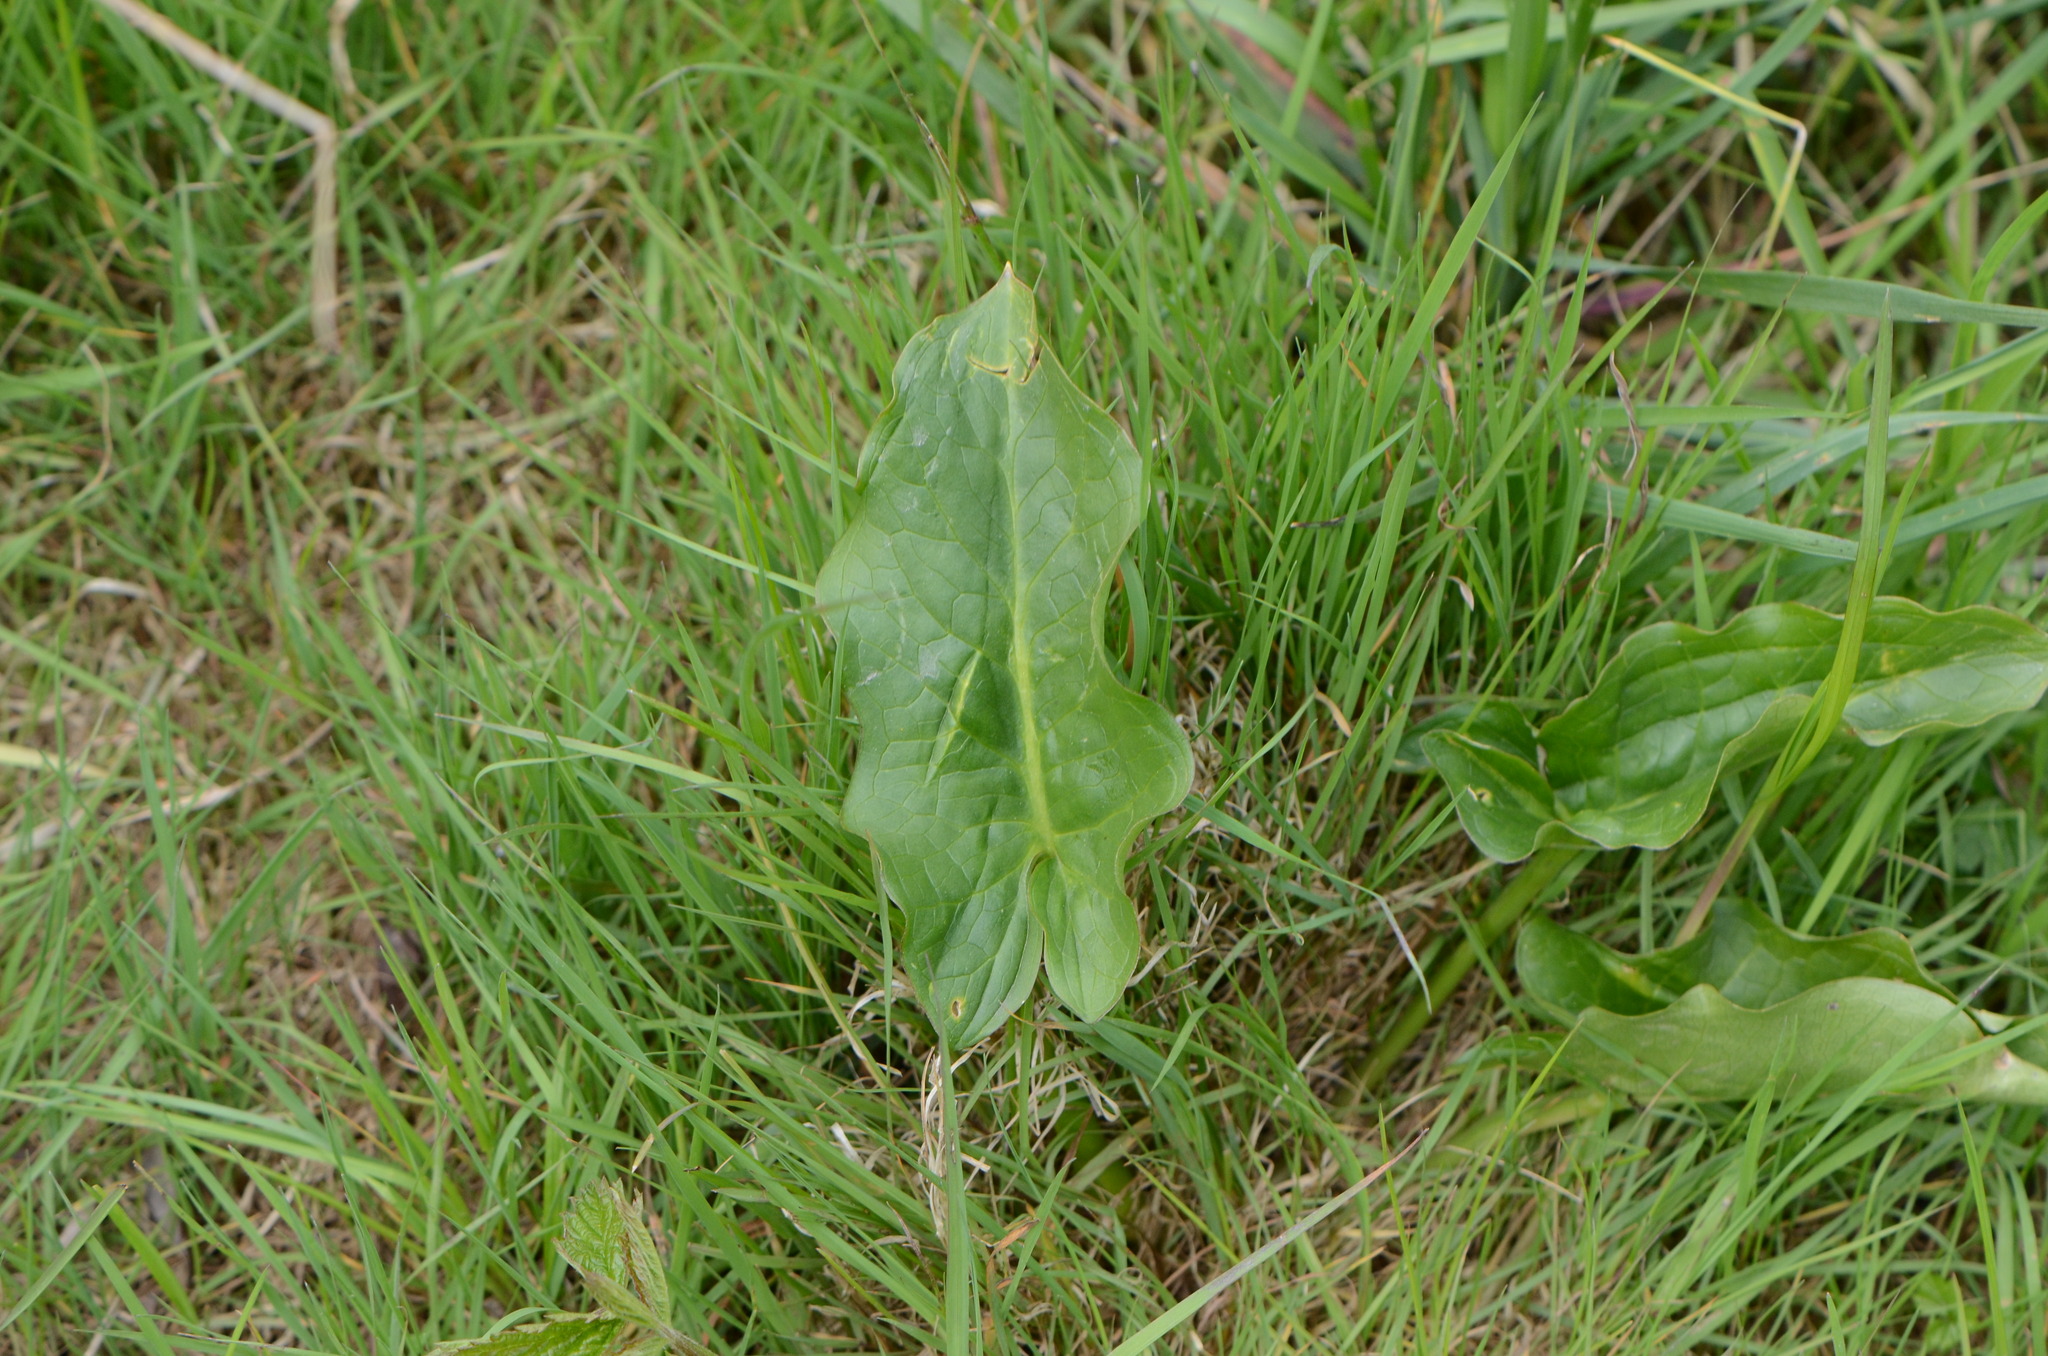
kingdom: Plantae
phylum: Tracheophyta
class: Liliopsida
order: Alismatales
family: Araceae
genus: Arum
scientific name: Arum cylindraceum
